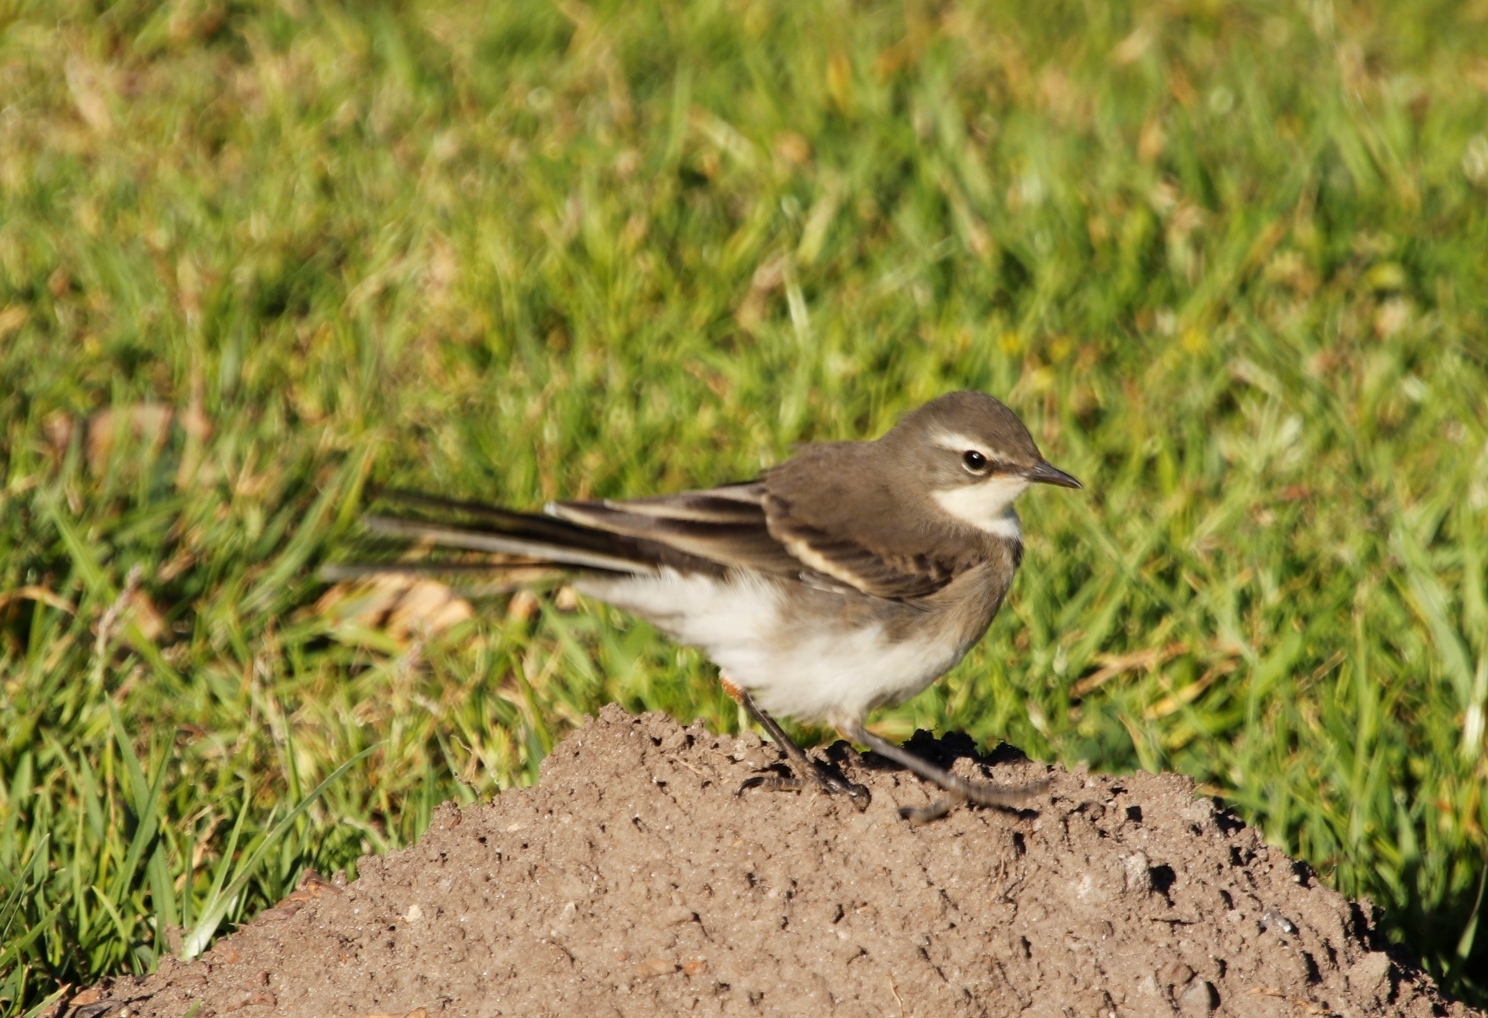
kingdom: Animalia
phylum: Chordata
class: Aves
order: Passeriformes
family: Motacillidae
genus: Motacilla
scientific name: Motacilla capensis
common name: Cape wagtail
